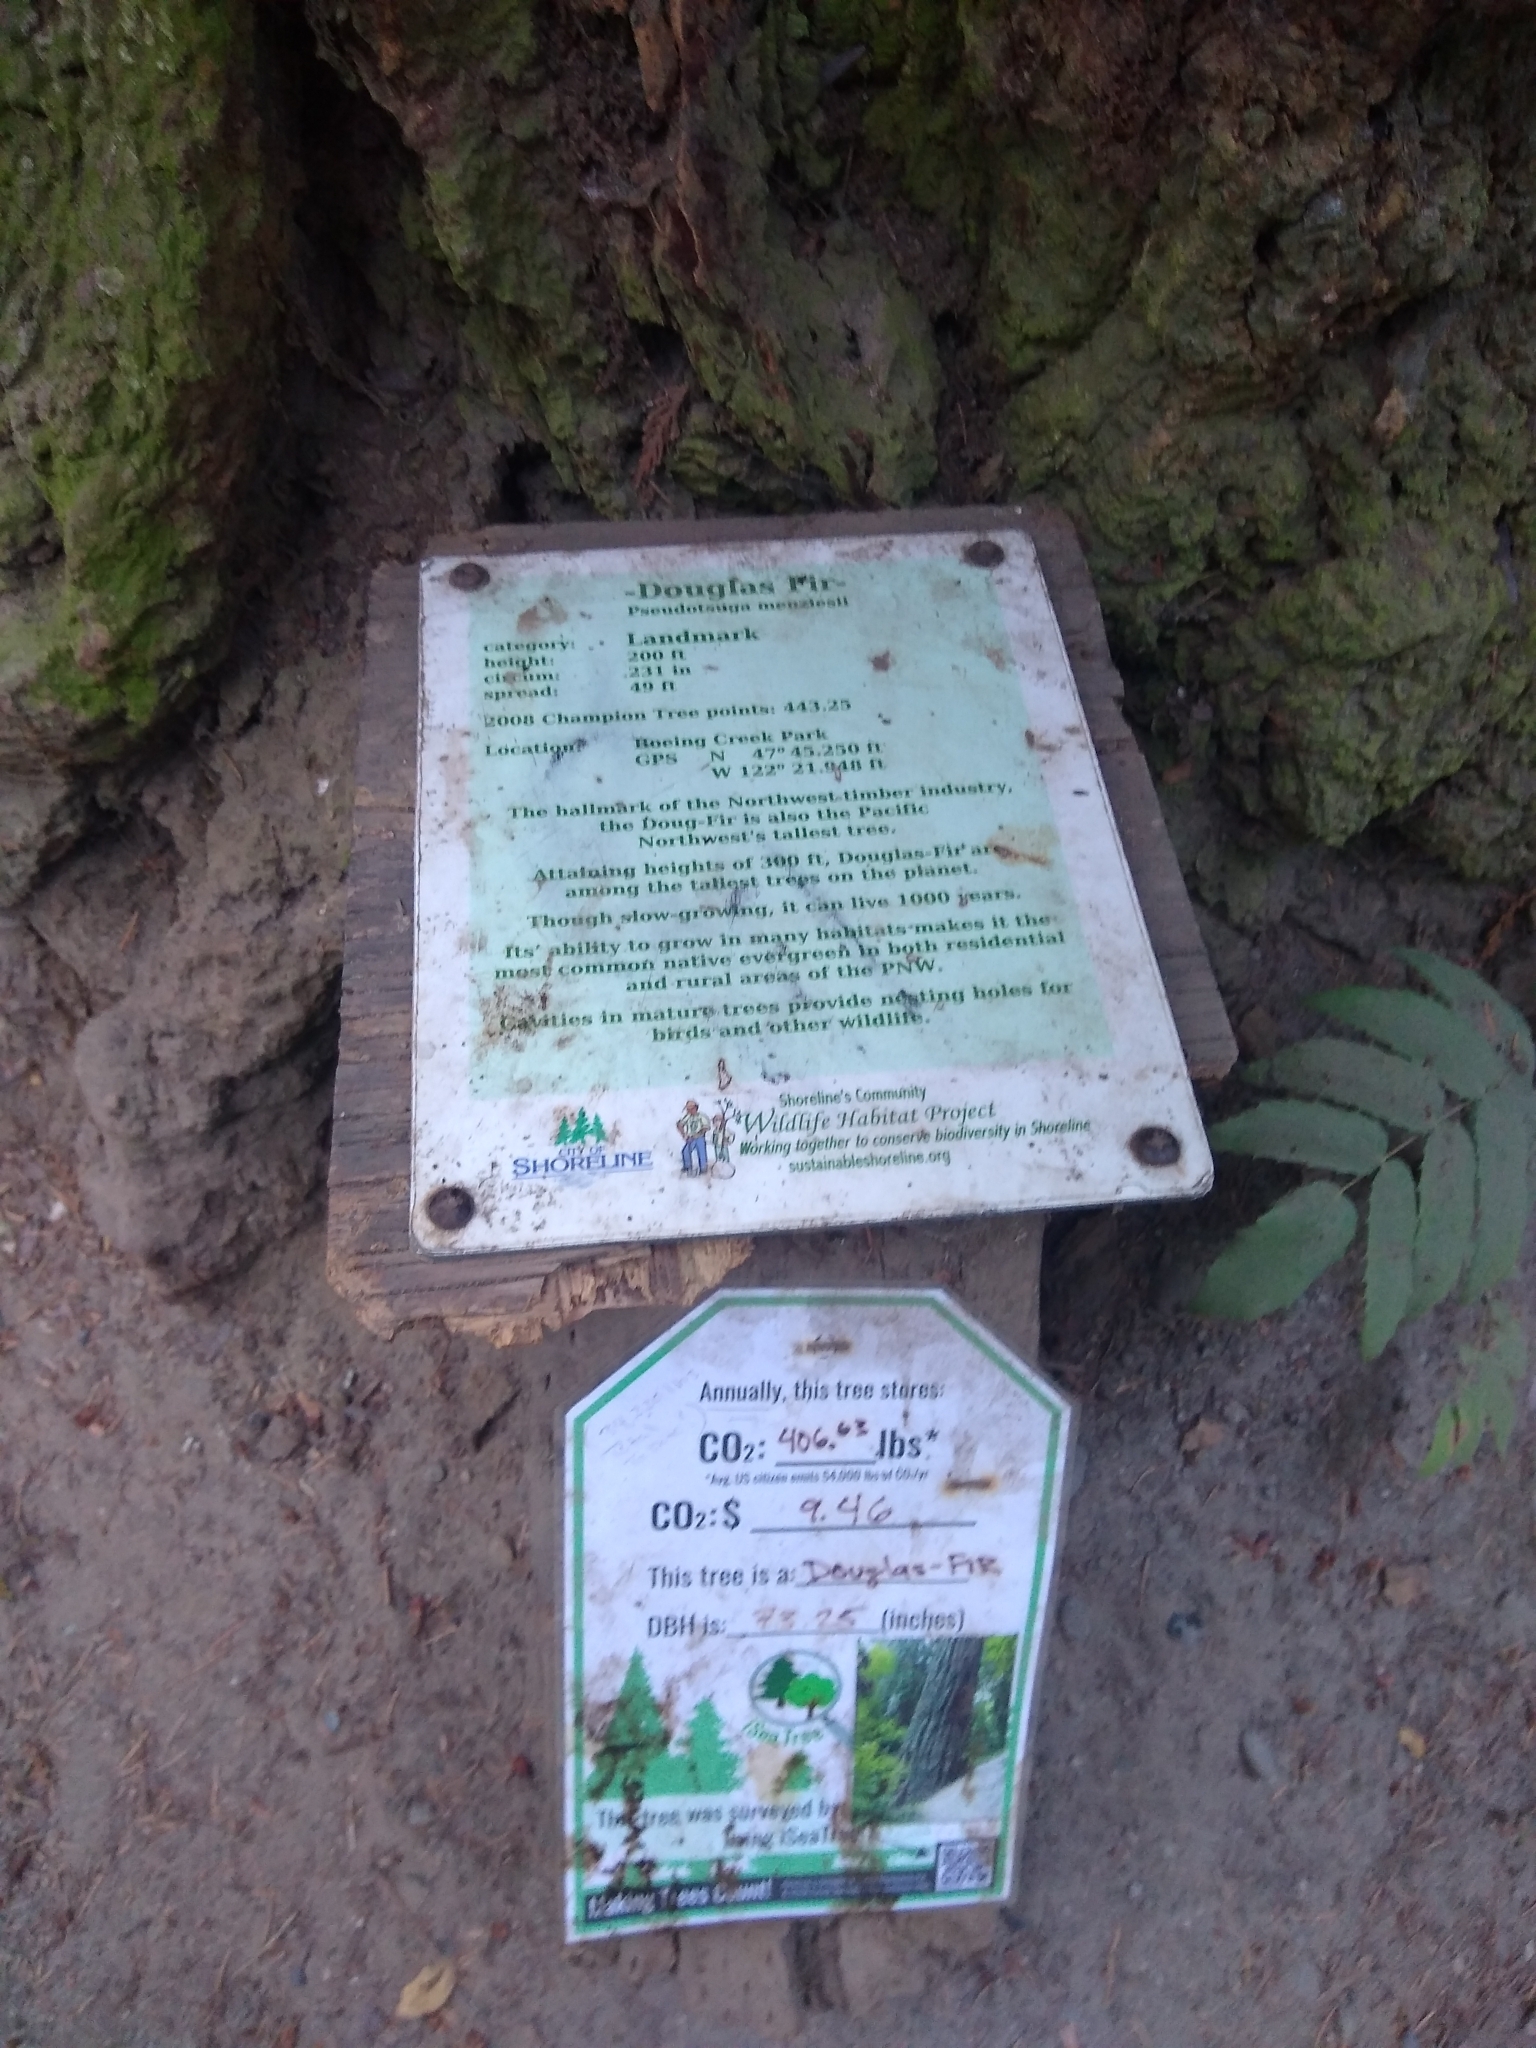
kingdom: Plantae
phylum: Tracheophyta
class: Pinopsida
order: Pinales
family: Pinaceae
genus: Pseudotsuga
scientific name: Pseudotsuga menziesii
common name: Douglas fir
